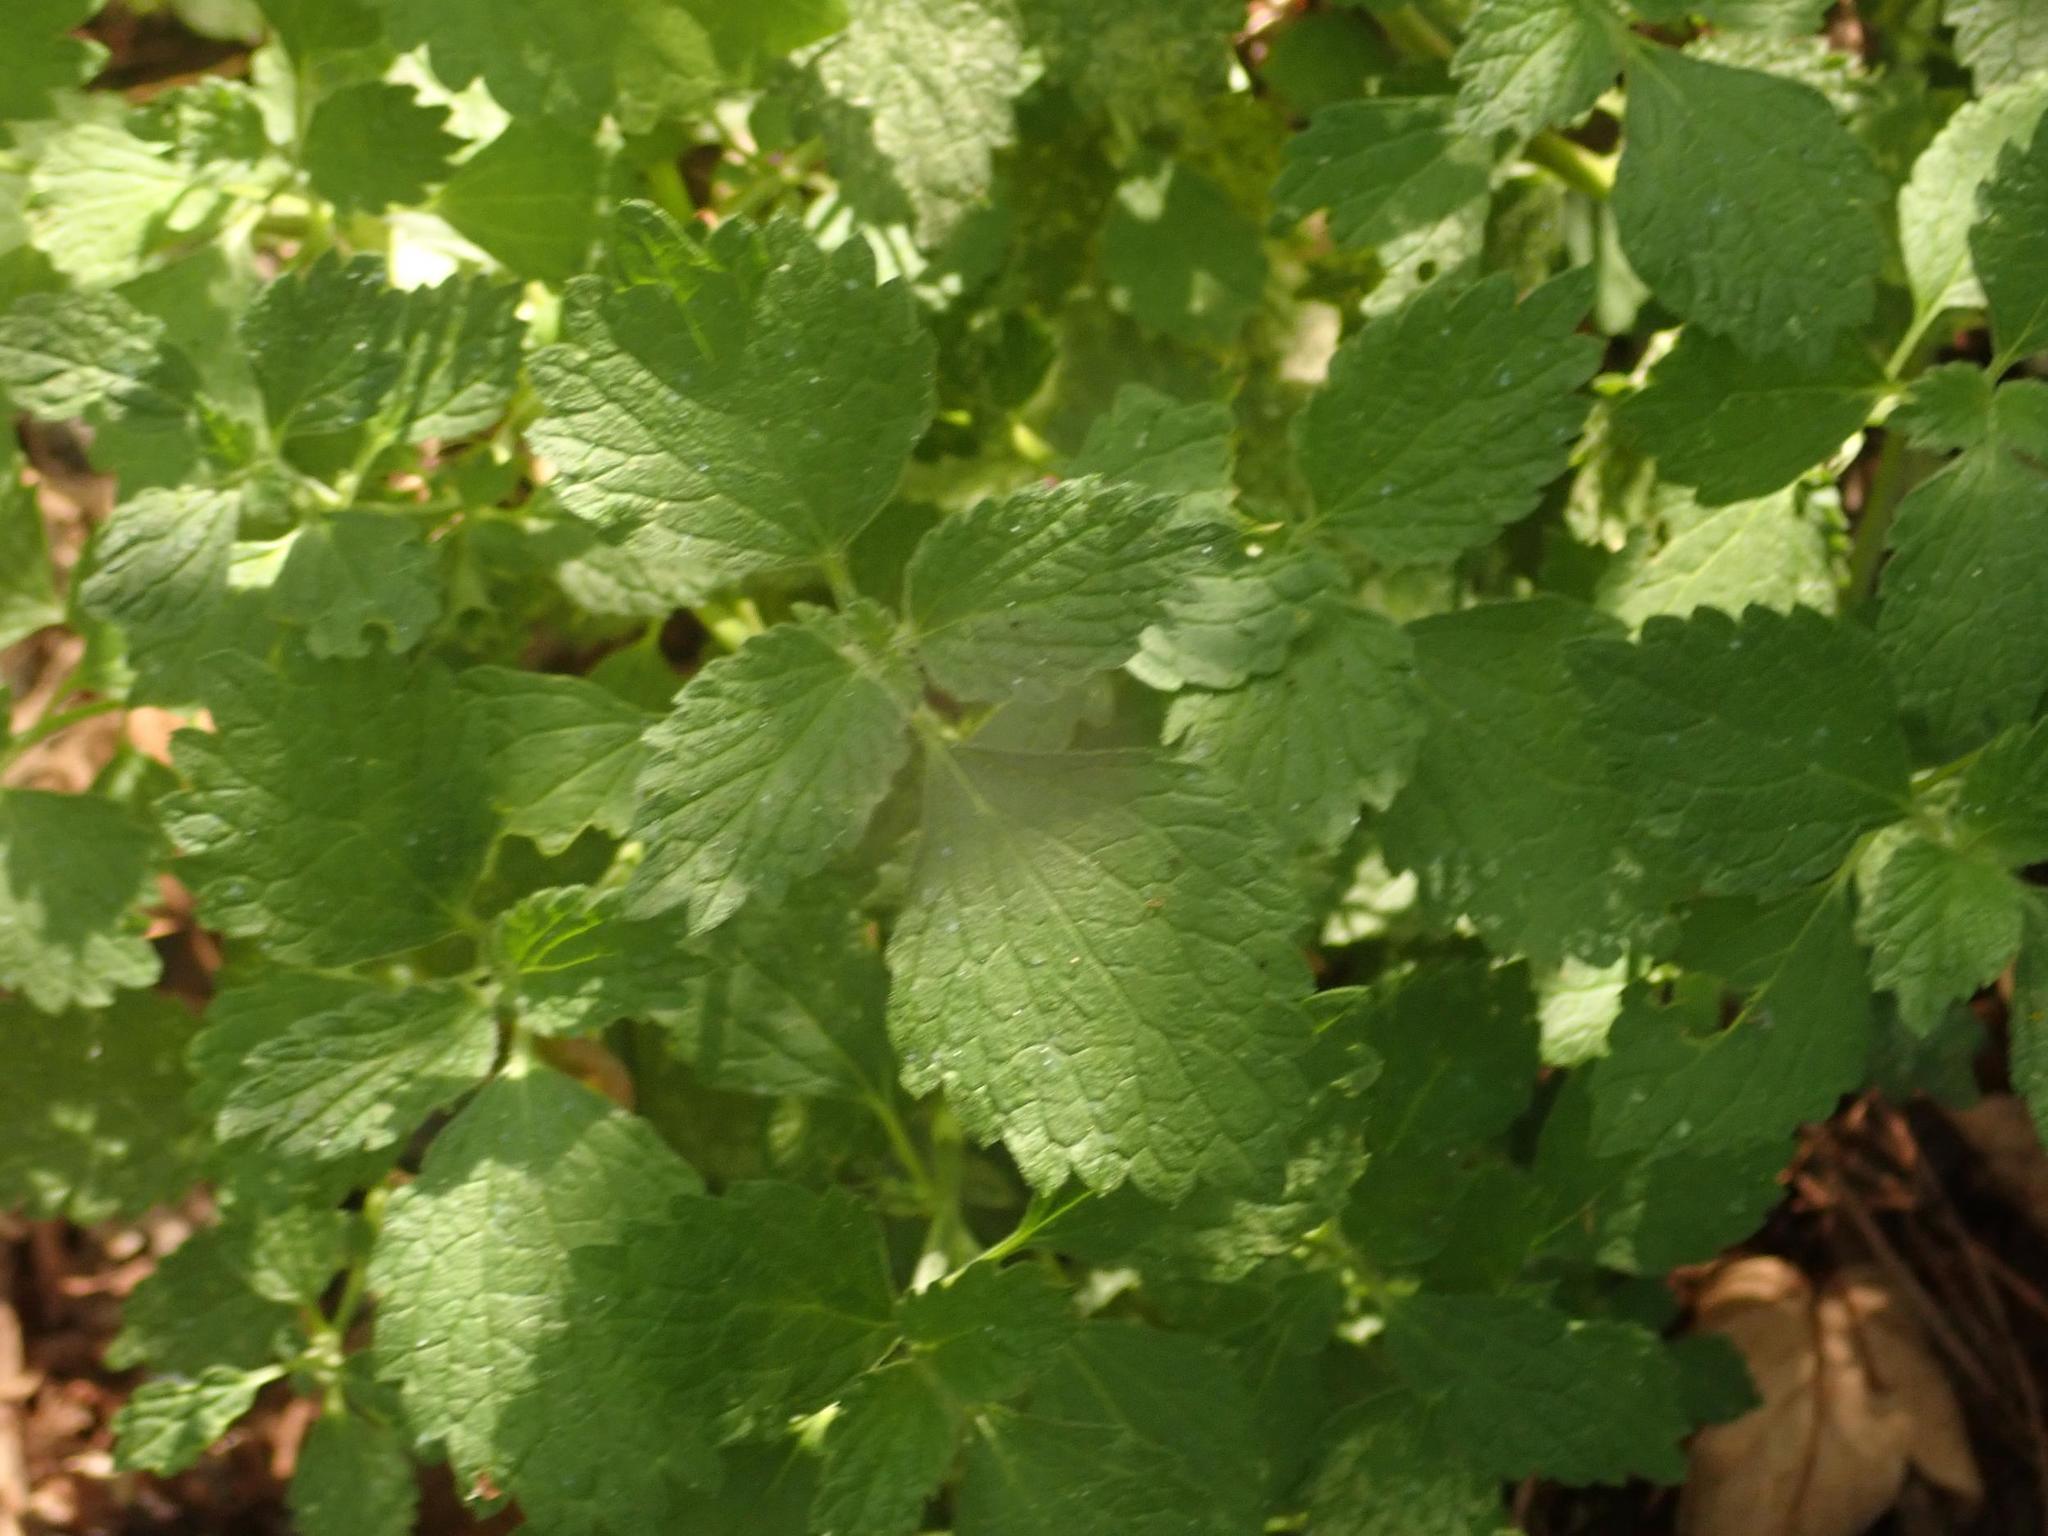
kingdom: Plantae
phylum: Tracheophyta
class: Magnoliopsida
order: Lamiales
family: Lamiaceae
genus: Ballota
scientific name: Ballota nigra
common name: Black horehound
